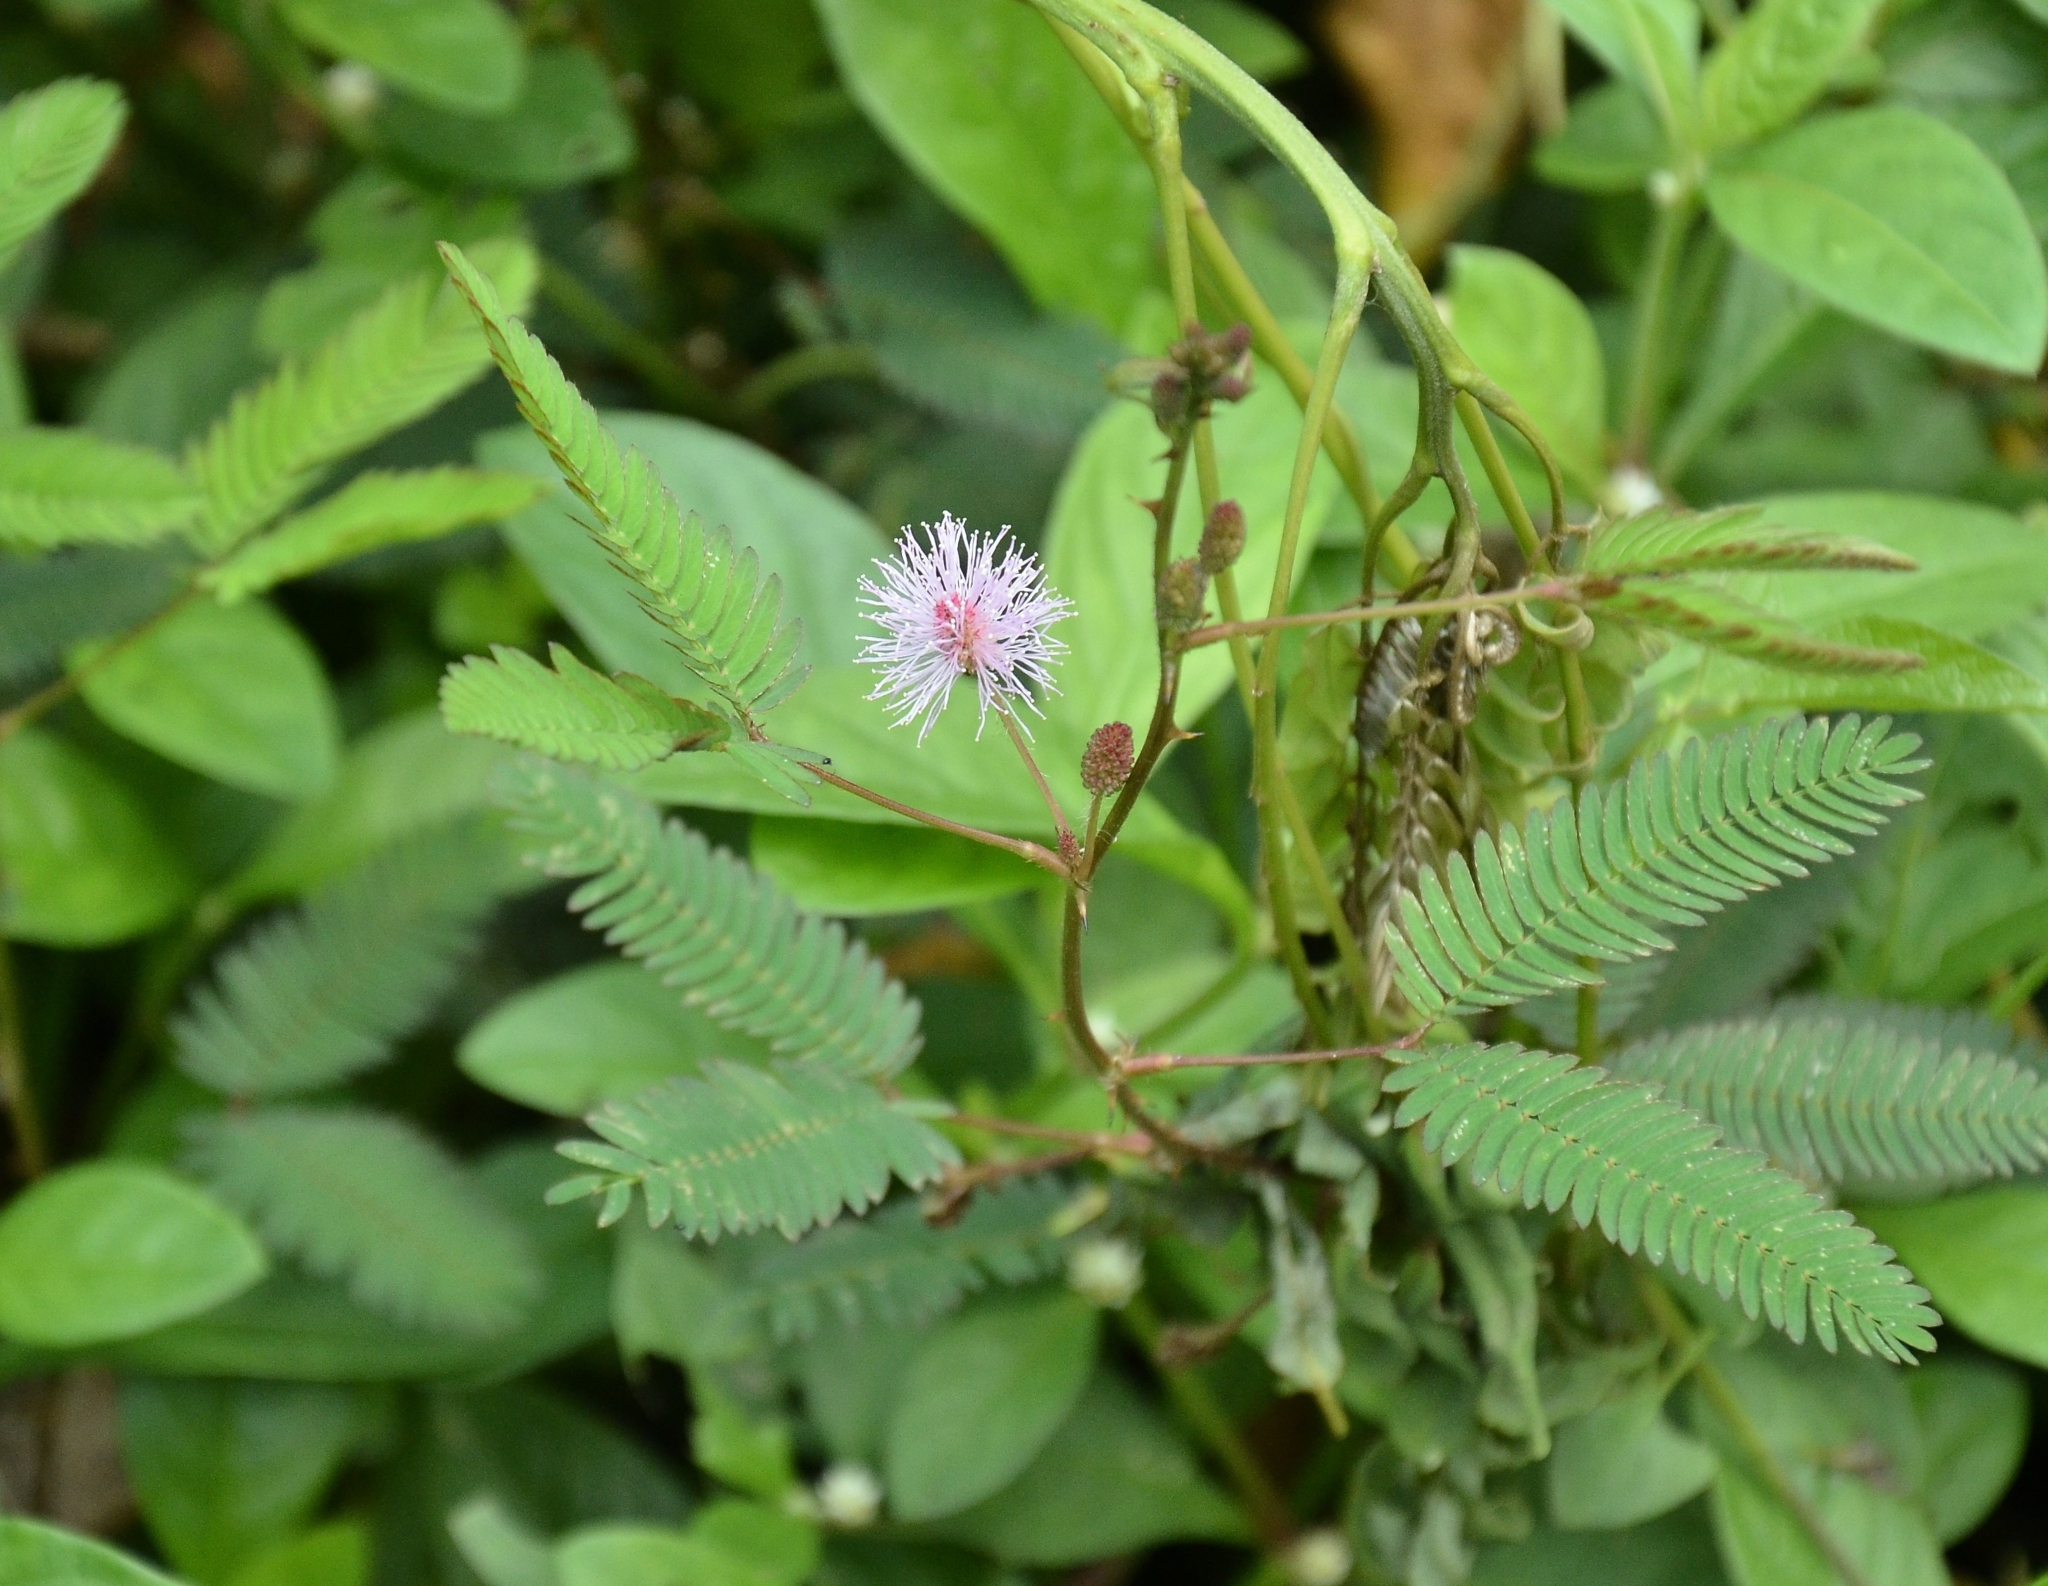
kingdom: Plantae
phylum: Tracheophyta
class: Magnoliopsida
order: Fabales
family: Fabaceae
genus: Mimosa
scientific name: Mimosa pudica
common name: Sensitive plant
